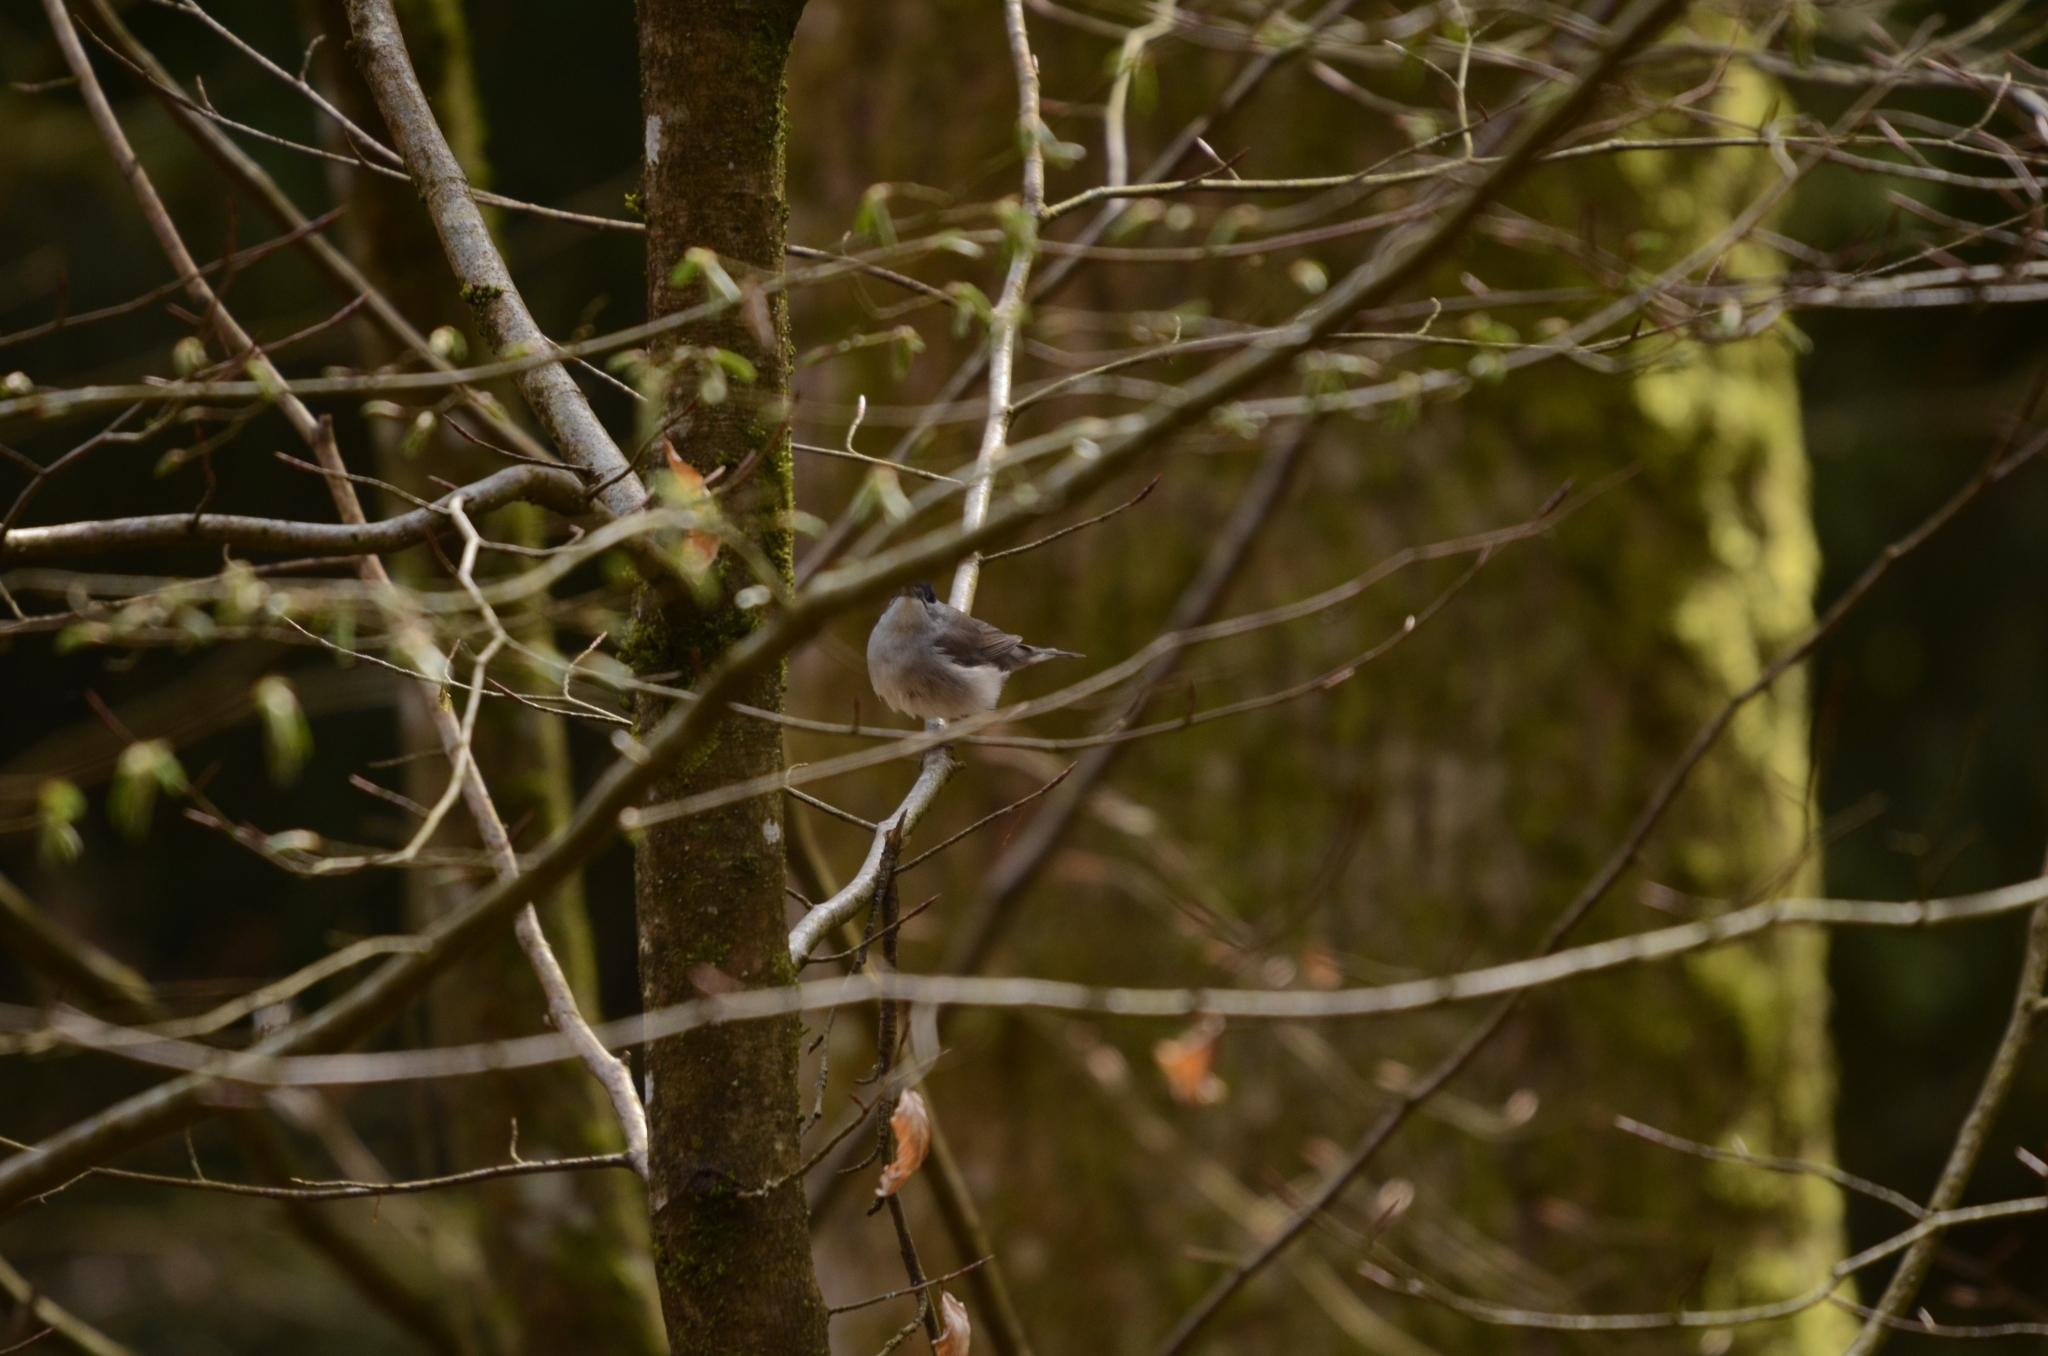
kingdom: Animalia
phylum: Chordata
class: Aves
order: Passeriformes
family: Sylviidae
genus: Sylvia
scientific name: Sylvia atricapilla
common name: Eurasian blackcap
